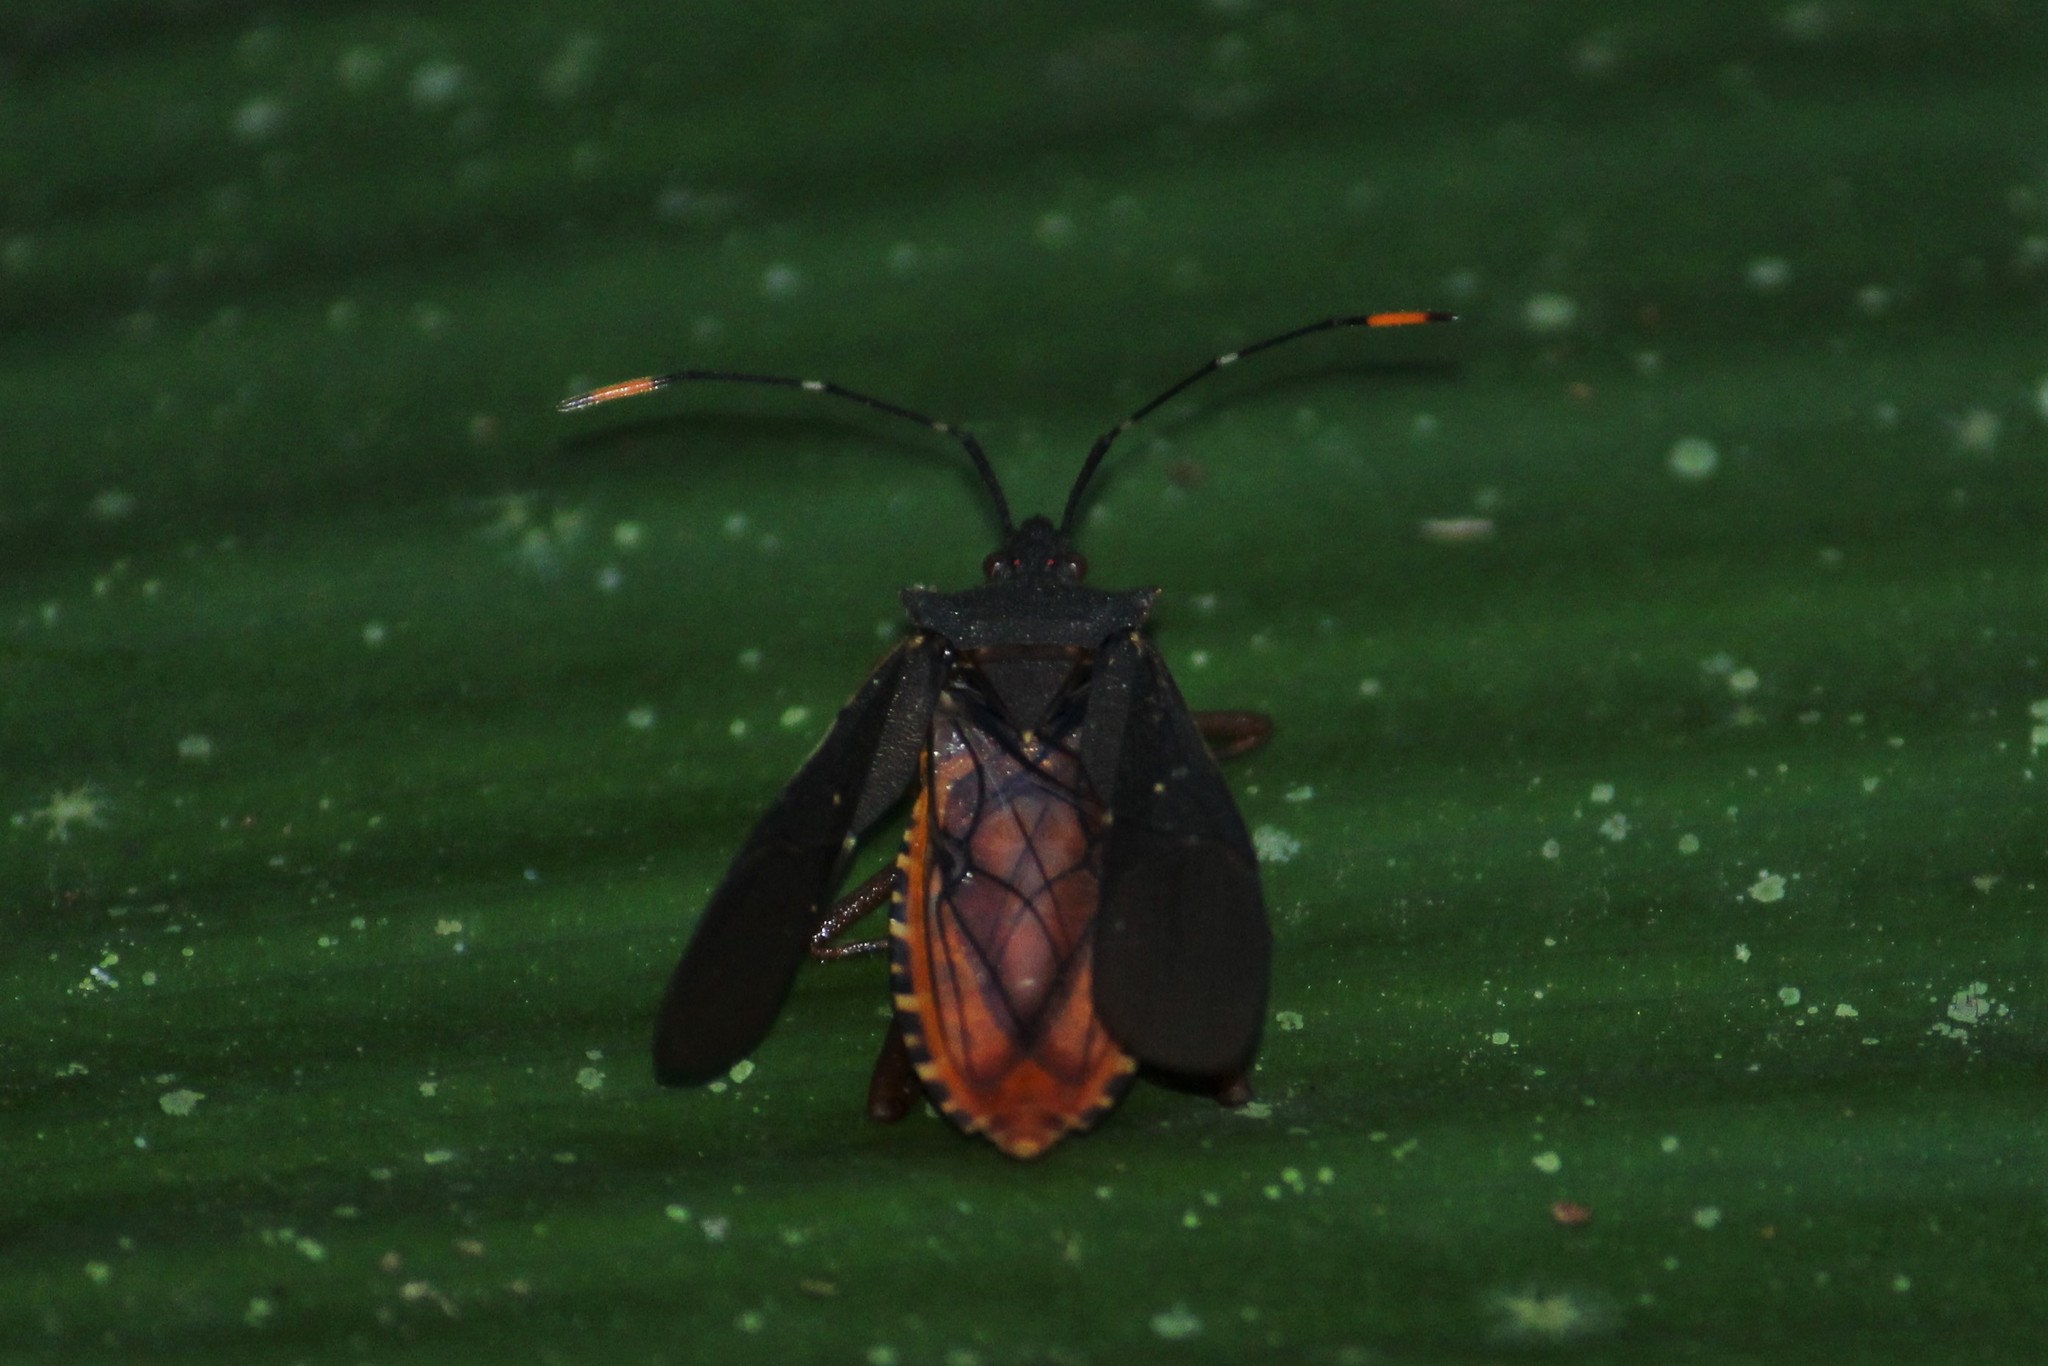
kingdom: Animalia
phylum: Arthropoda
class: Insecta
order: Hemiptera
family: Coreidae
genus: Leptoscelis
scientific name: Leptoscelis elongator
